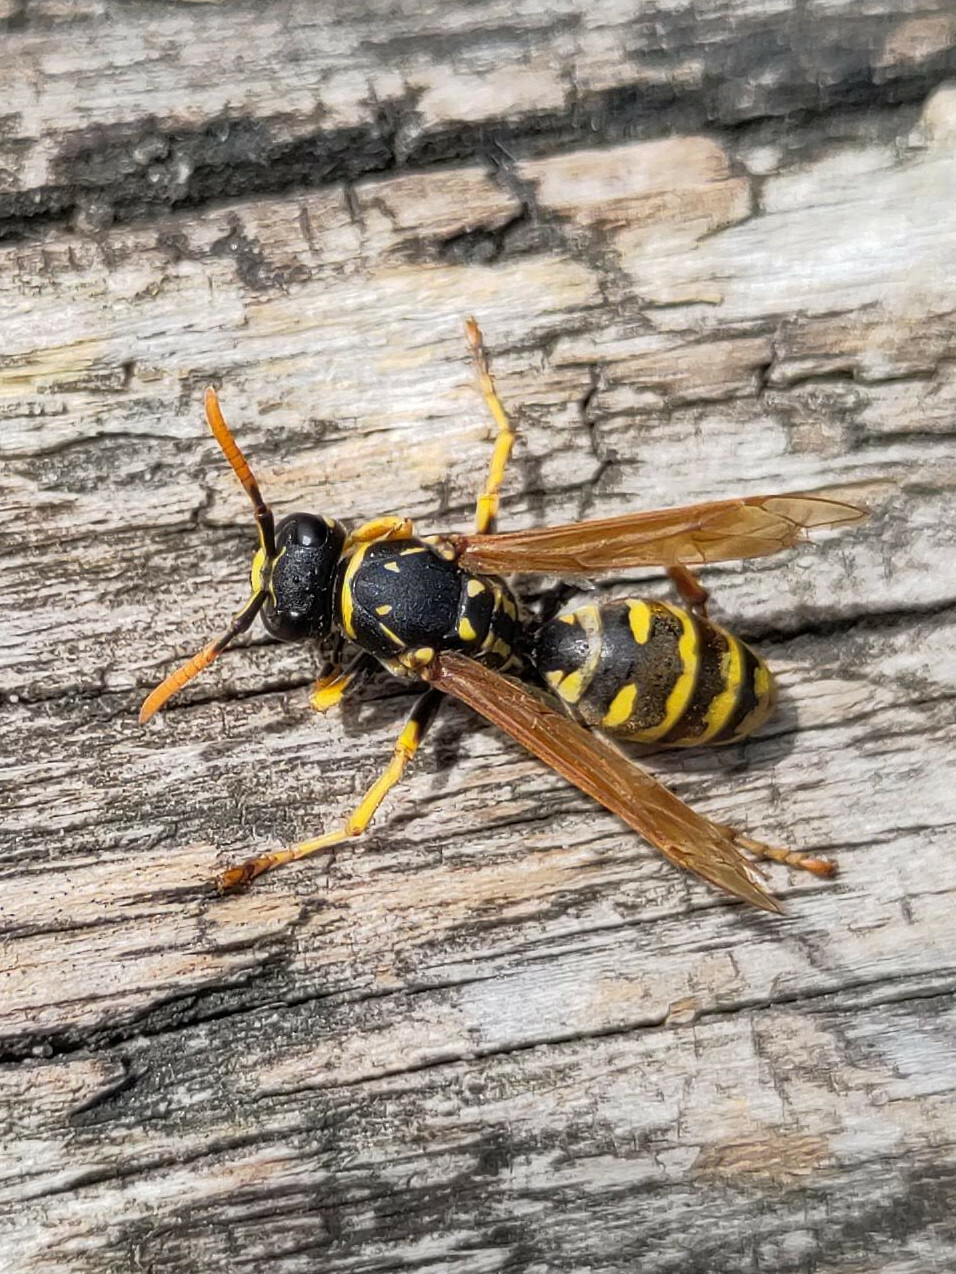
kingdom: Animalia
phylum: Arthropoda
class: Insecta
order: Hymenoptera
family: Eumenidae
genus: Polistes
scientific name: Polistes dominula
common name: Paper wasp
